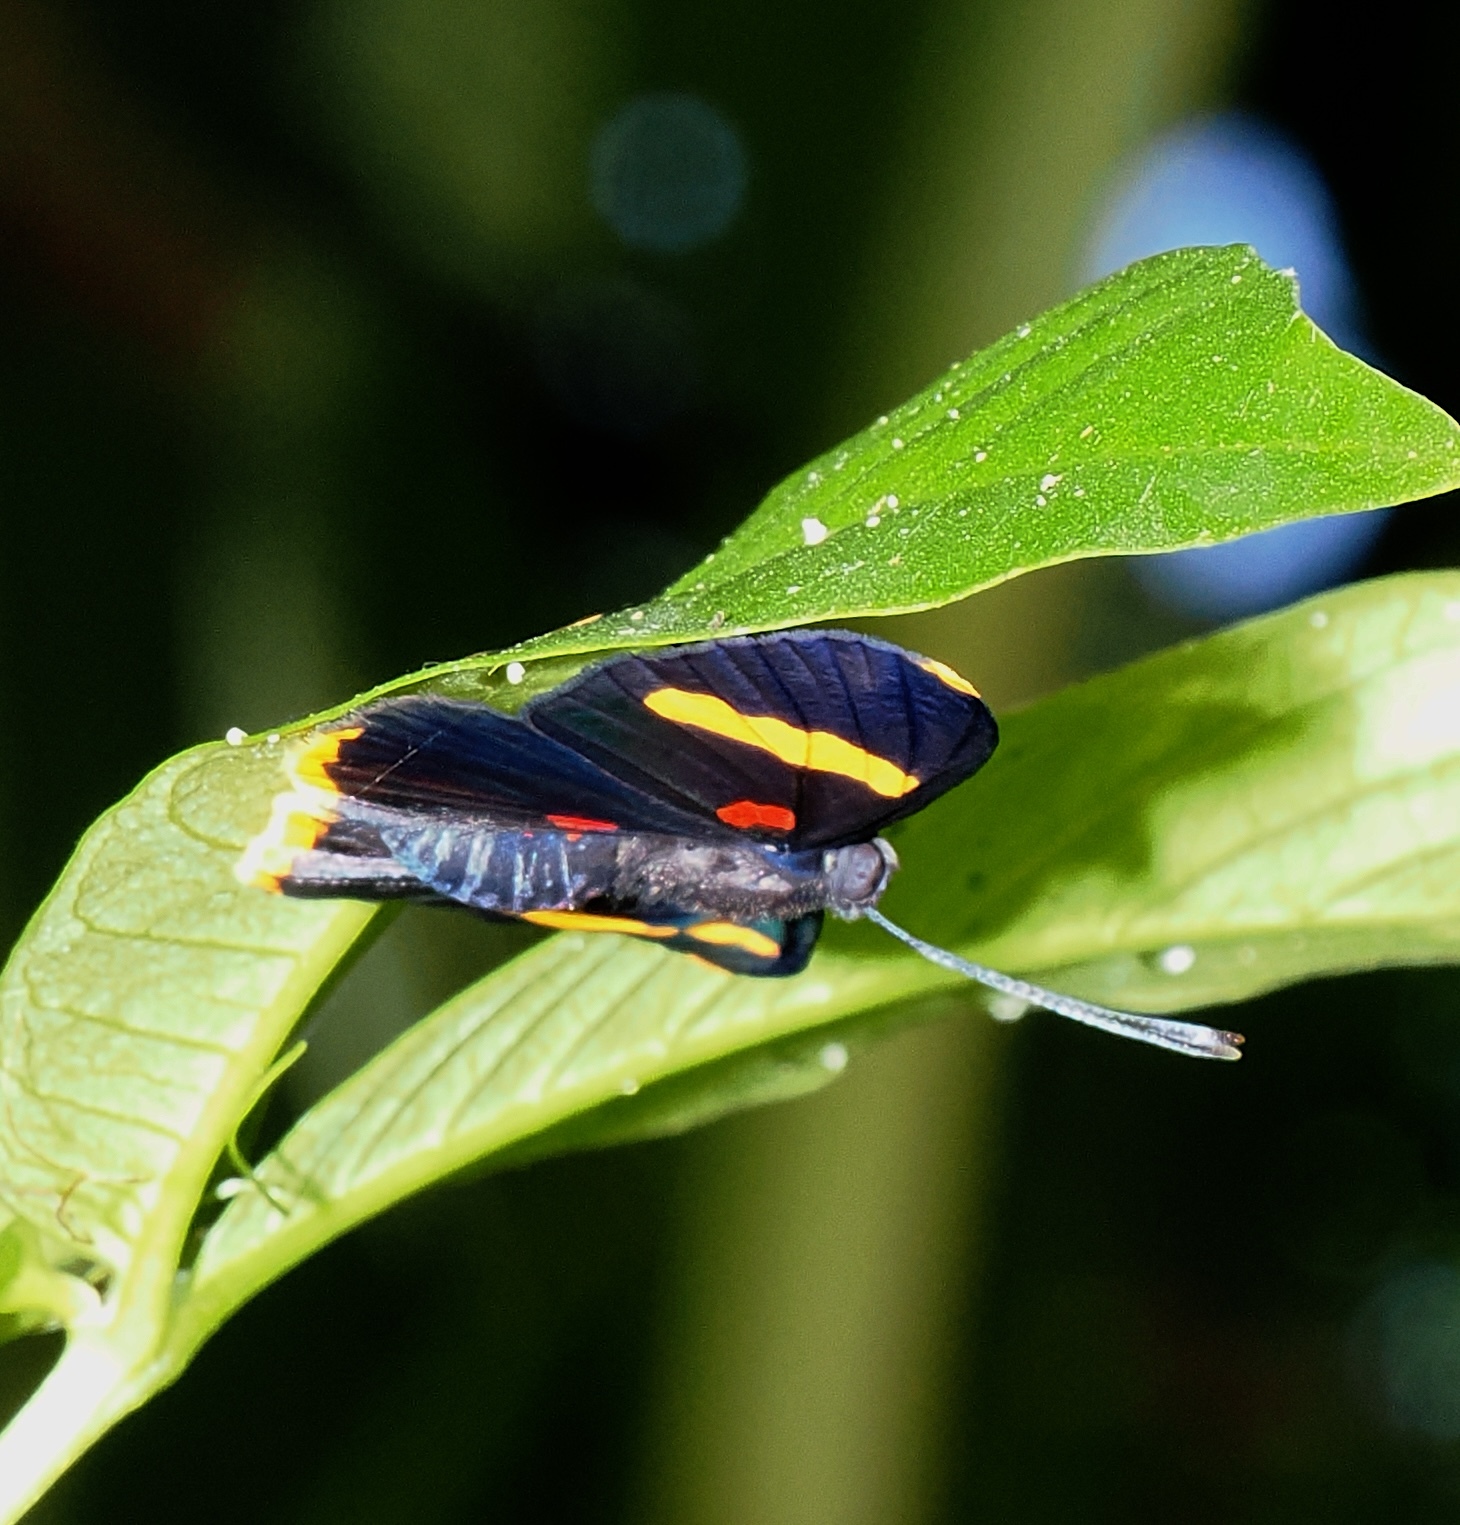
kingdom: Animalia
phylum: Arthropoda
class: Insecta
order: Lepidoptera
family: Lycaenidae
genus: Melanis
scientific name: Melanis electron
